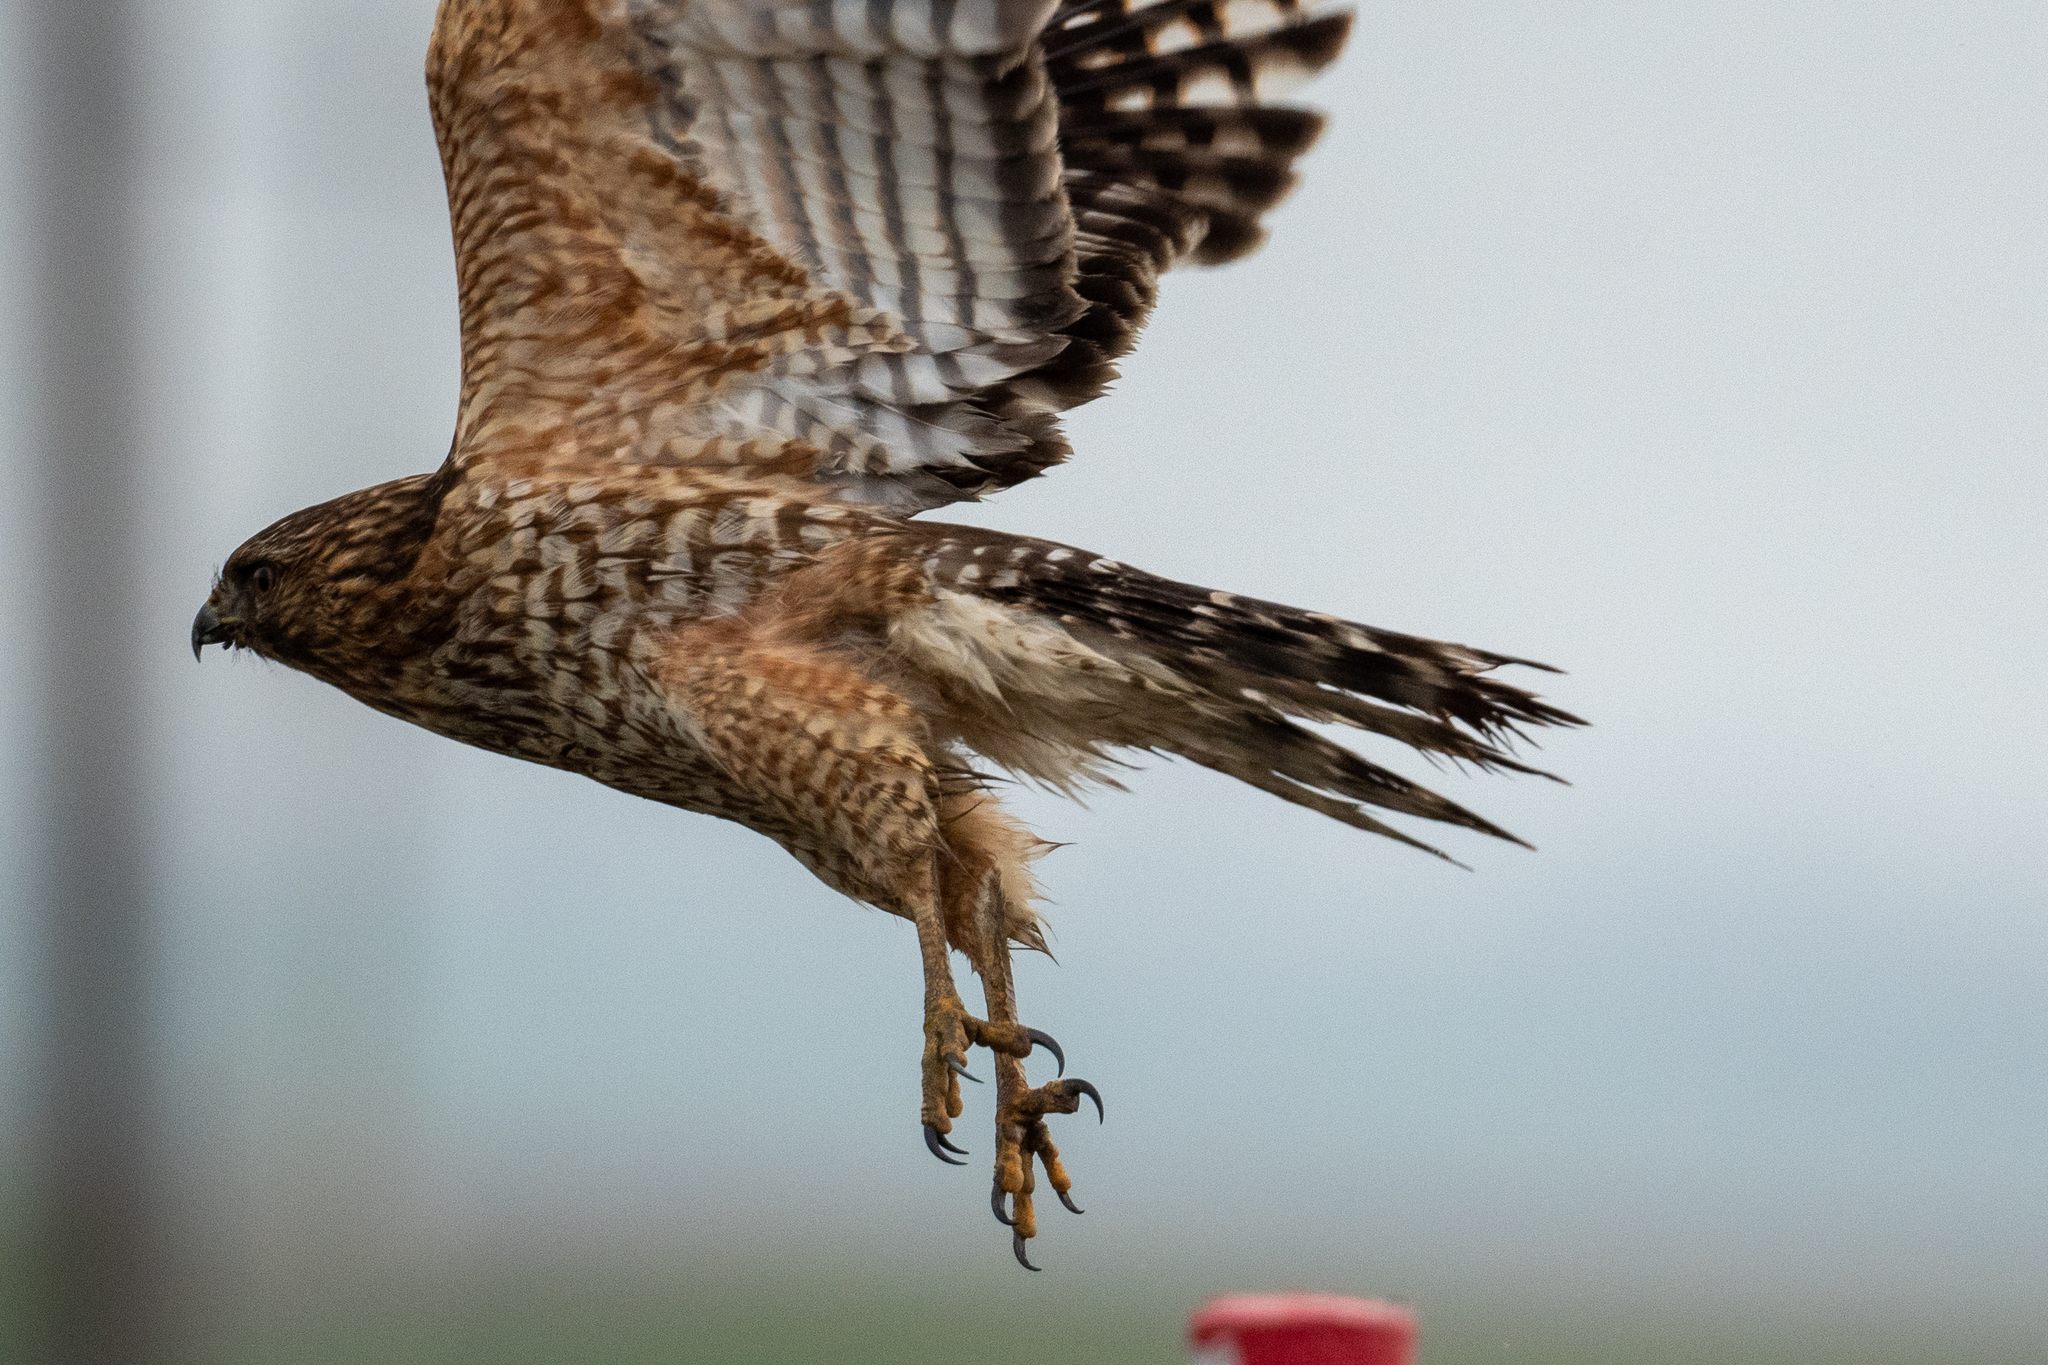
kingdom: Animalia
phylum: Chordata
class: Aves
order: Accipitriformes
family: Accipitridae
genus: Buteo
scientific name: Buteo lineatus
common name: Red-shouldered hawk
